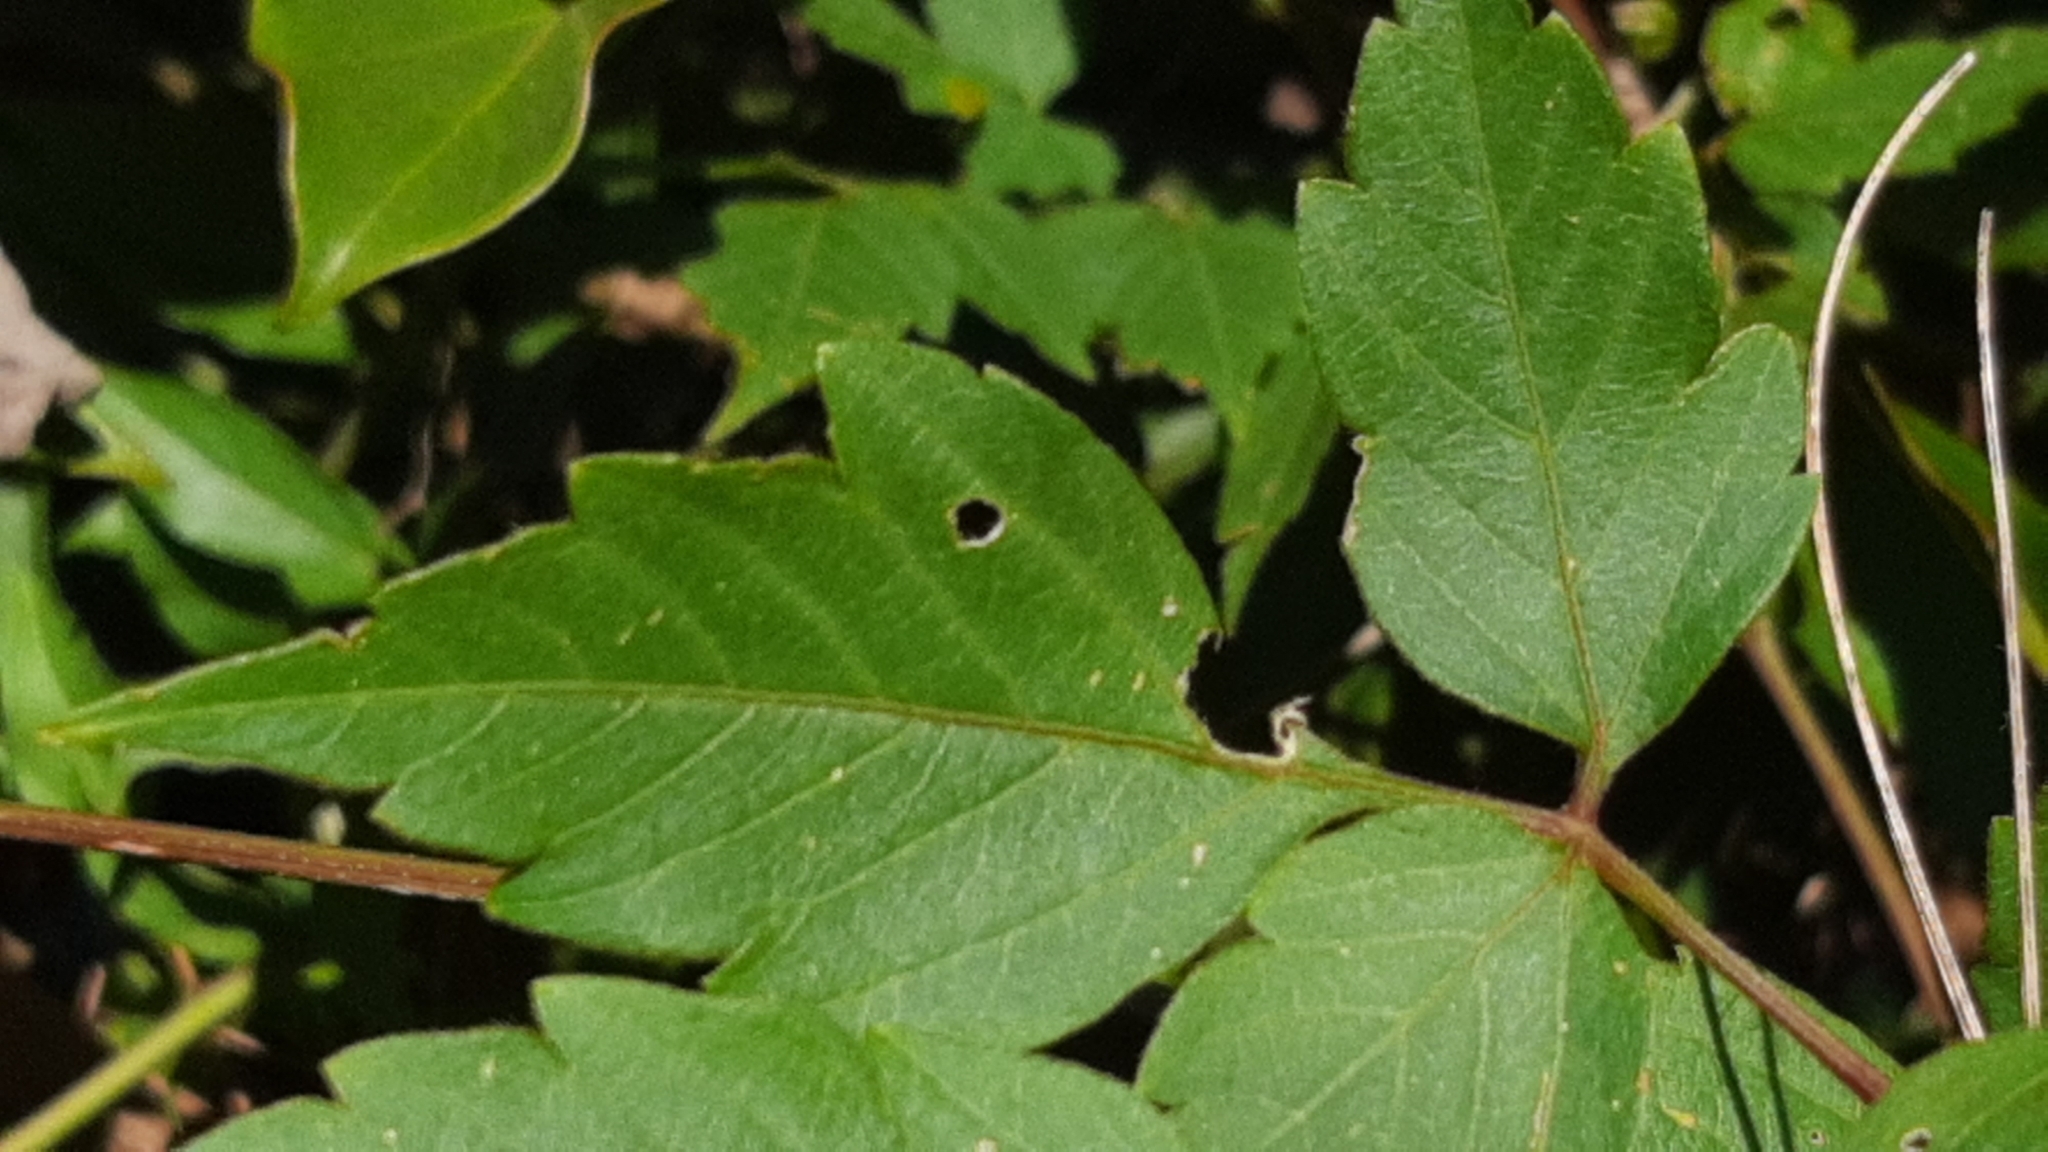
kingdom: Plantae
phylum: Tracheophyta
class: Magnoliopsida
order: Sapindales
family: Sapindaceae
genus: Cardiospermum
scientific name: Cardiospermum grandiflorum
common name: Balloon vine
